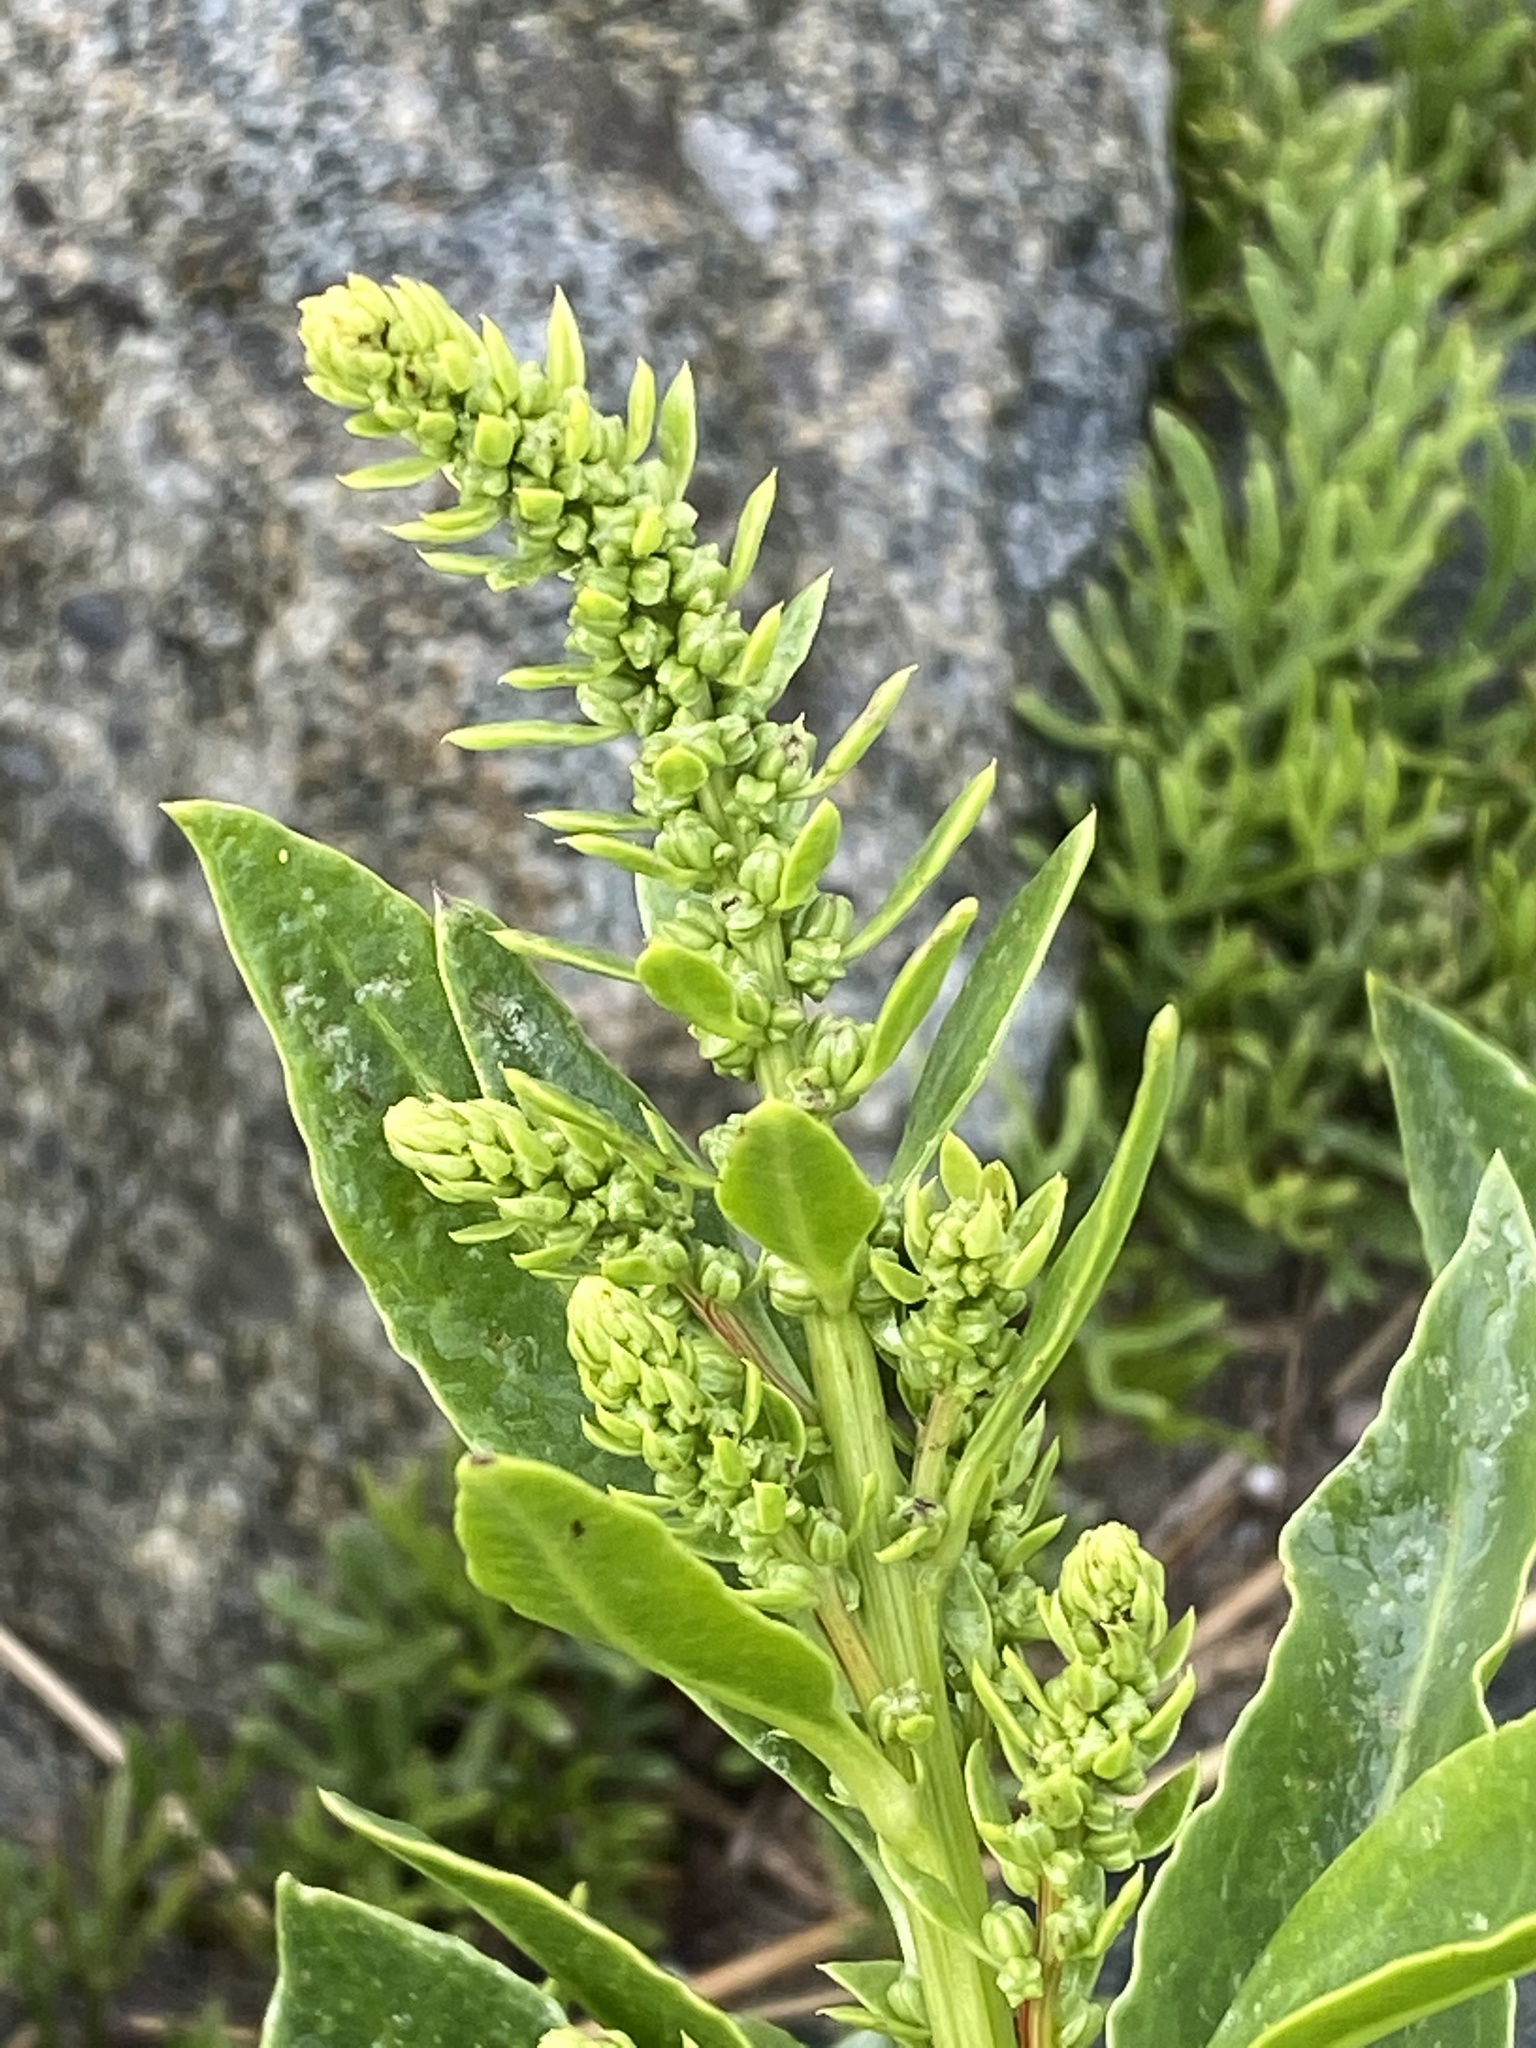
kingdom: Plantae
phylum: Tracheophyta
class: Magnoliopsida
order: Caryophyllales
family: Amaranthaceae
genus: Beta
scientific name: Beta vulgaris
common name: Beet
